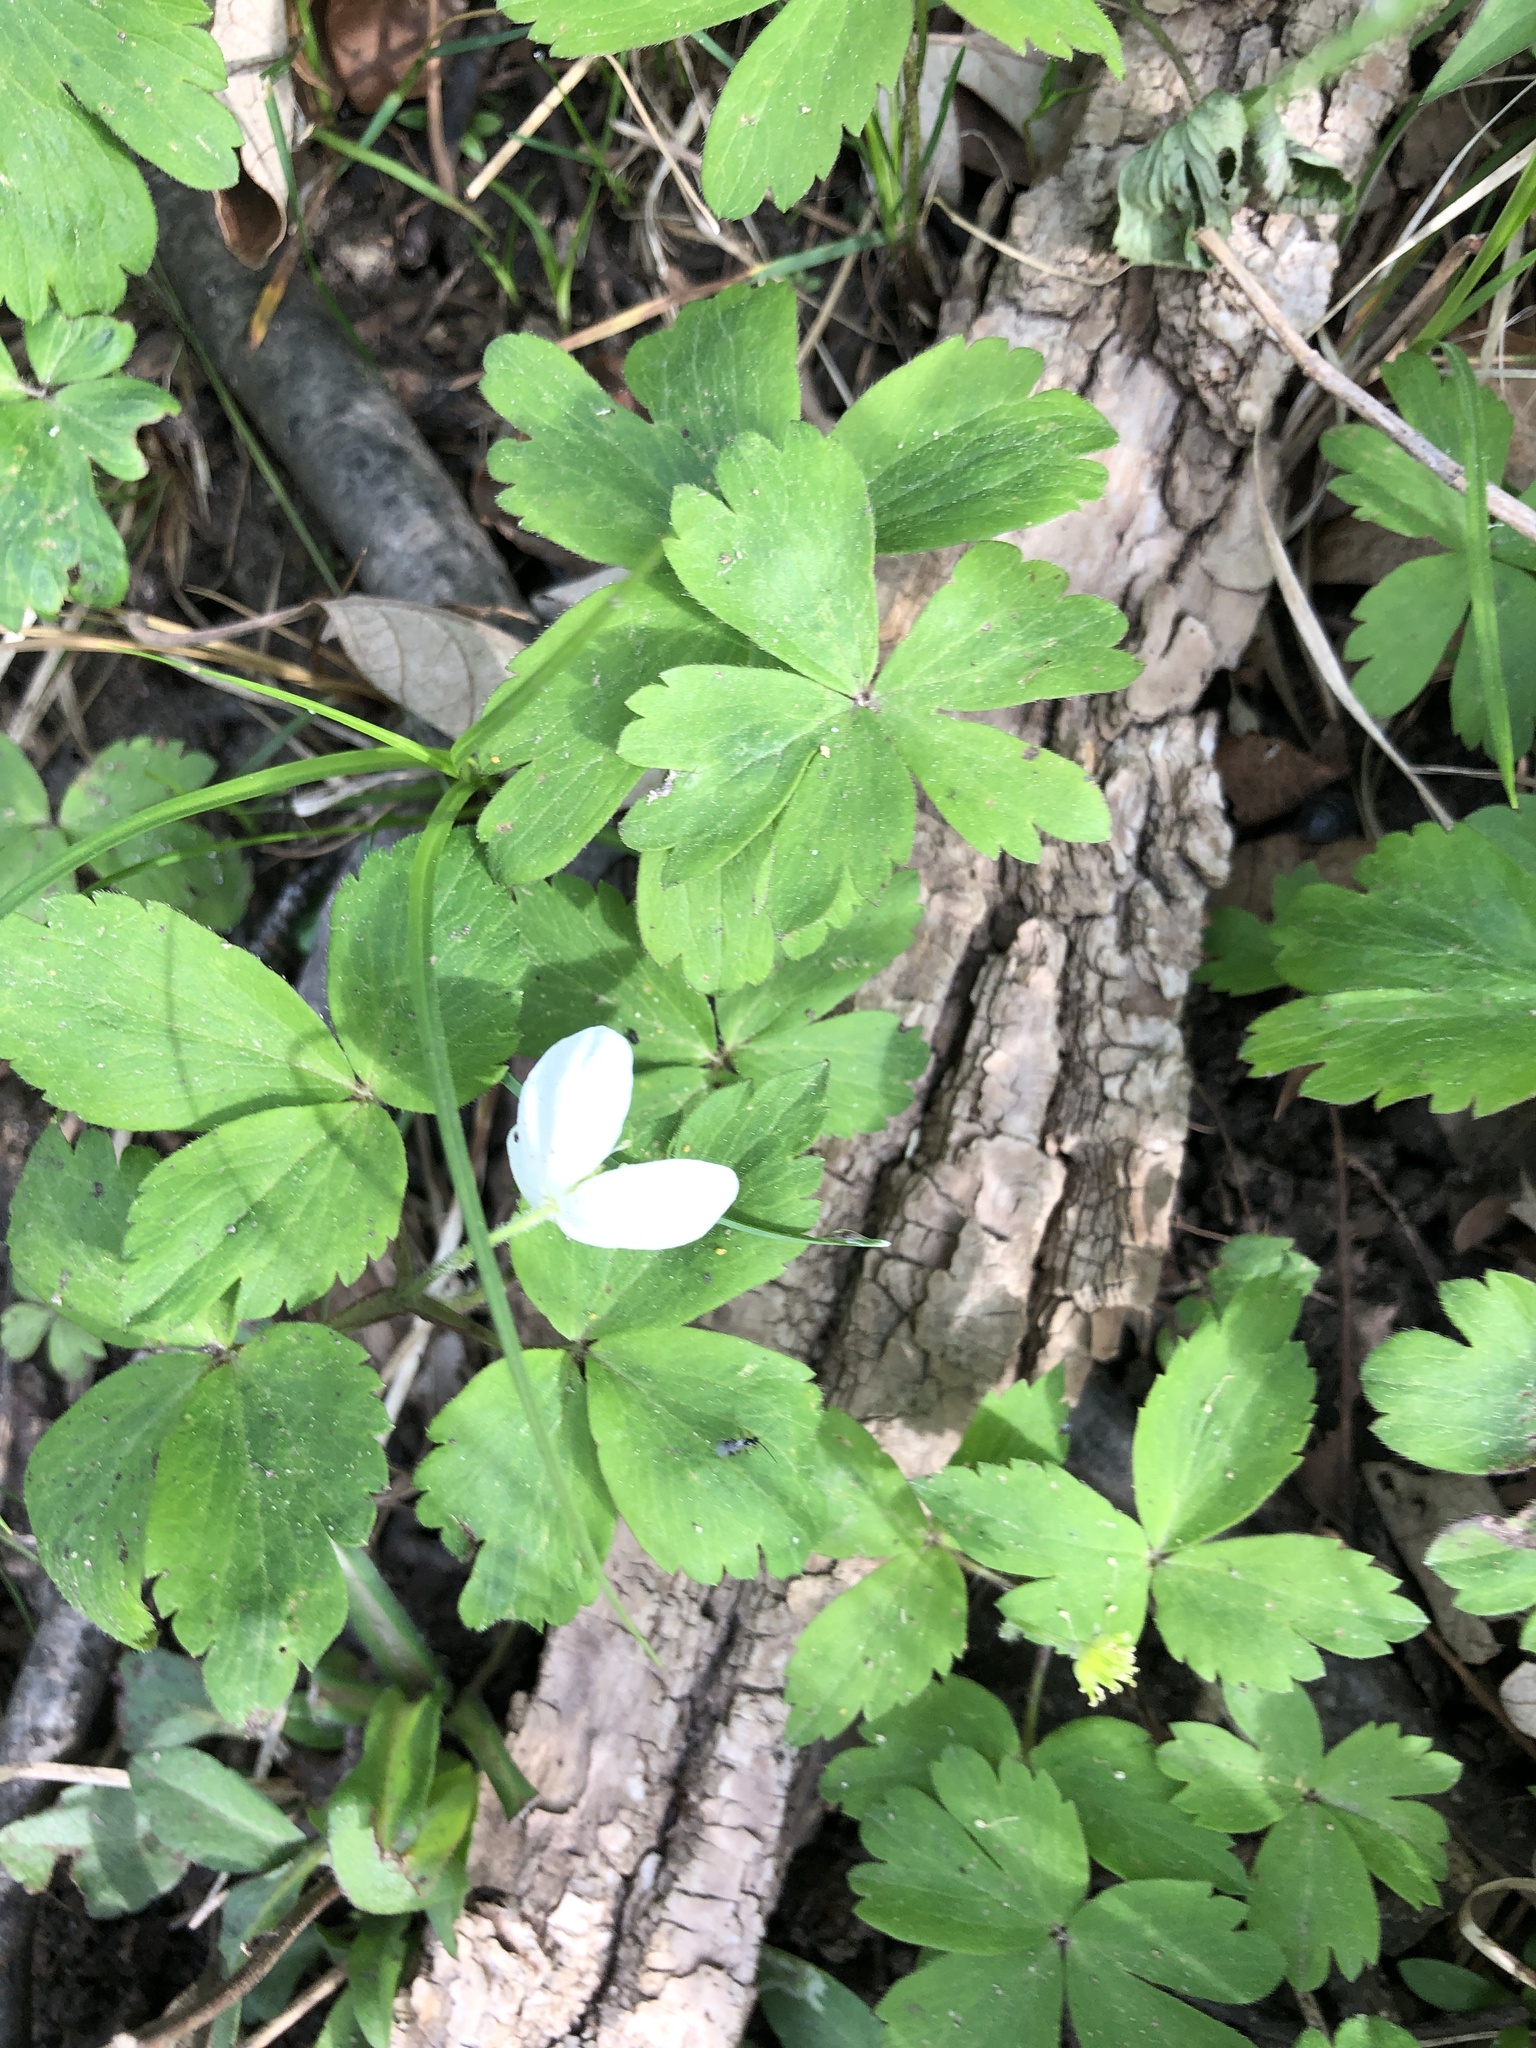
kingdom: Plantae
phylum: Tracheophyta
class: Magnoliopsida
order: Ranunculales
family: Ranunculaceae
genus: Anemone
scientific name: Anemone quinquefolia
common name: Wood anemone
